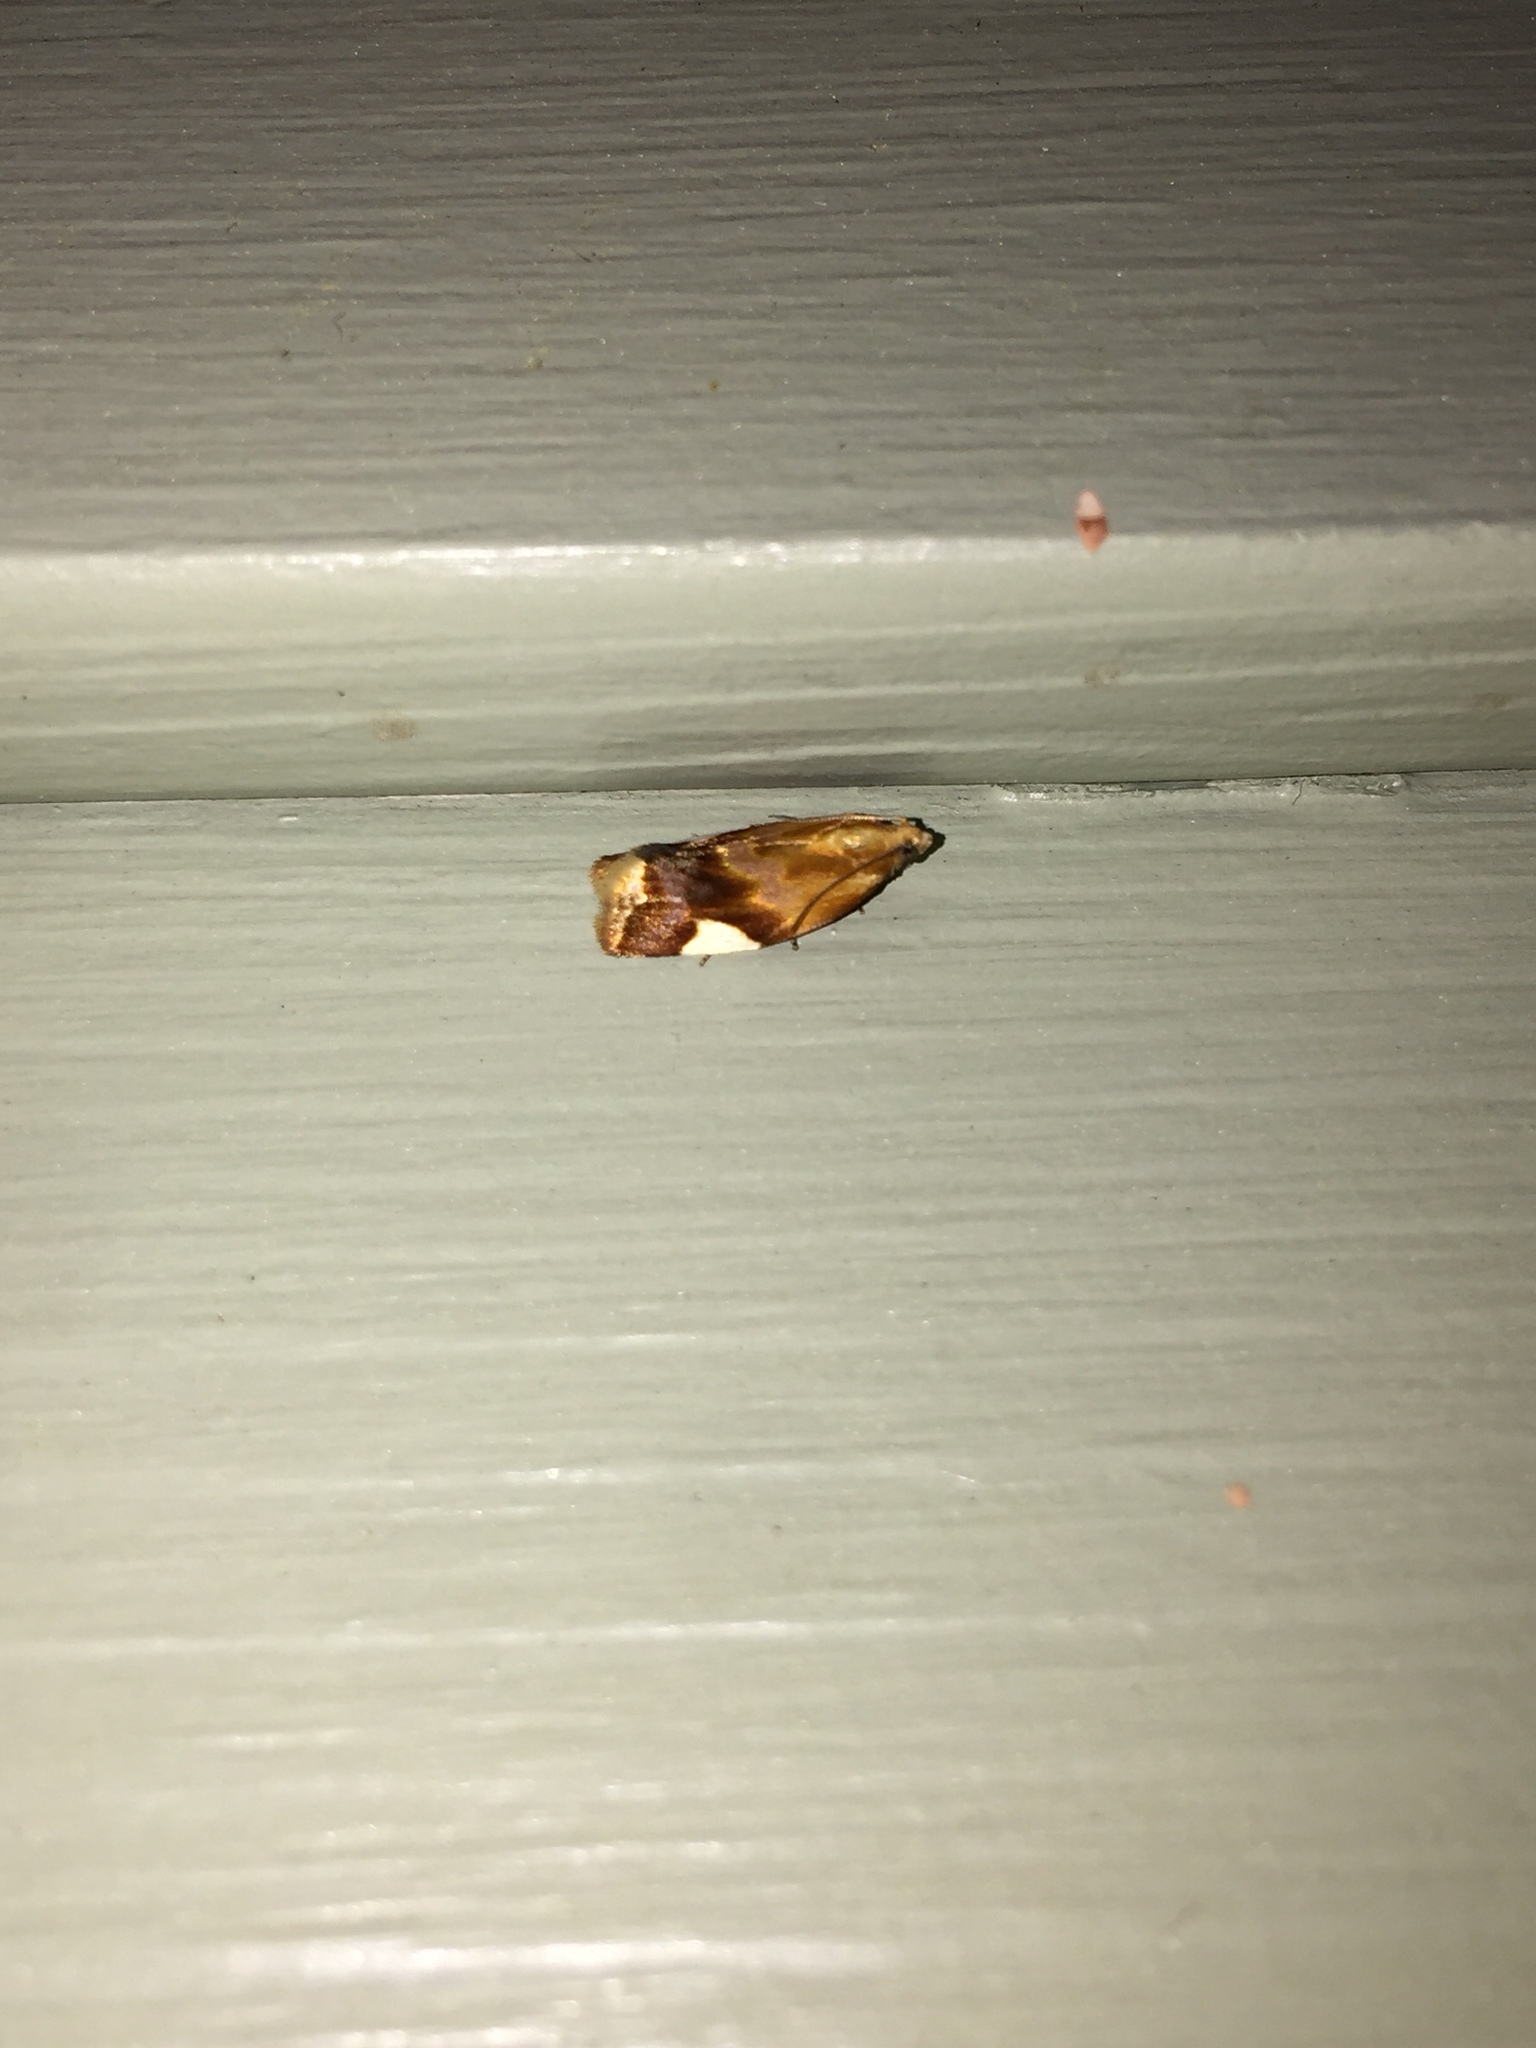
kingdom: Animalia
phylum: Arthropoda
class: Insecta
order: Lepidoptera
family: Tortricidae
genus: Clepsis
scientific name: Clepsis persicana
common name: White triangle tortrix
